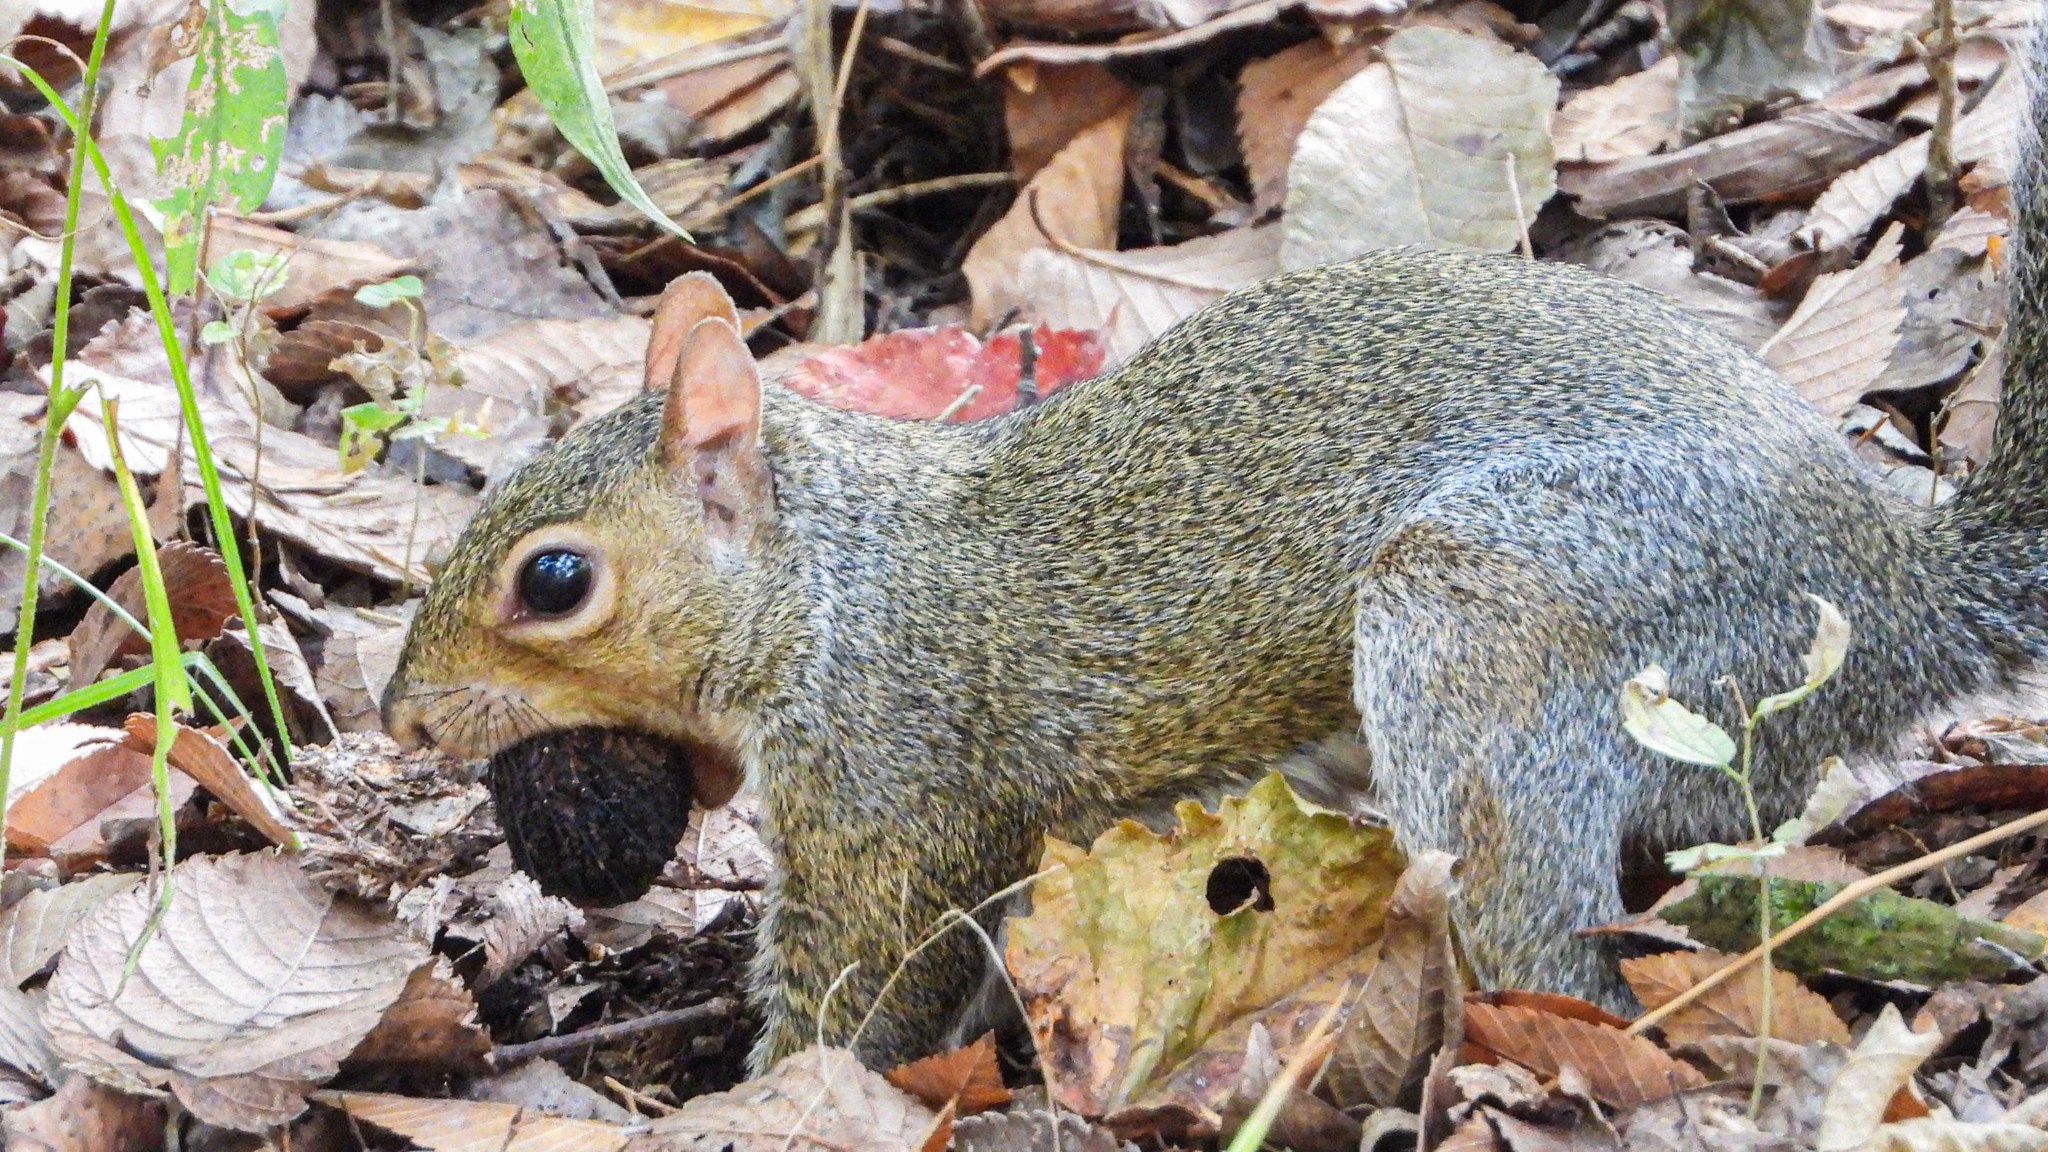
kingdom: Animalia
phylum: Chordata
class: Mammalia
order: Rodentia
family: Sciuridae
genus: Sciurus
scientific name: Sciurus carolinensis
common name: Eastern gray squirrel
